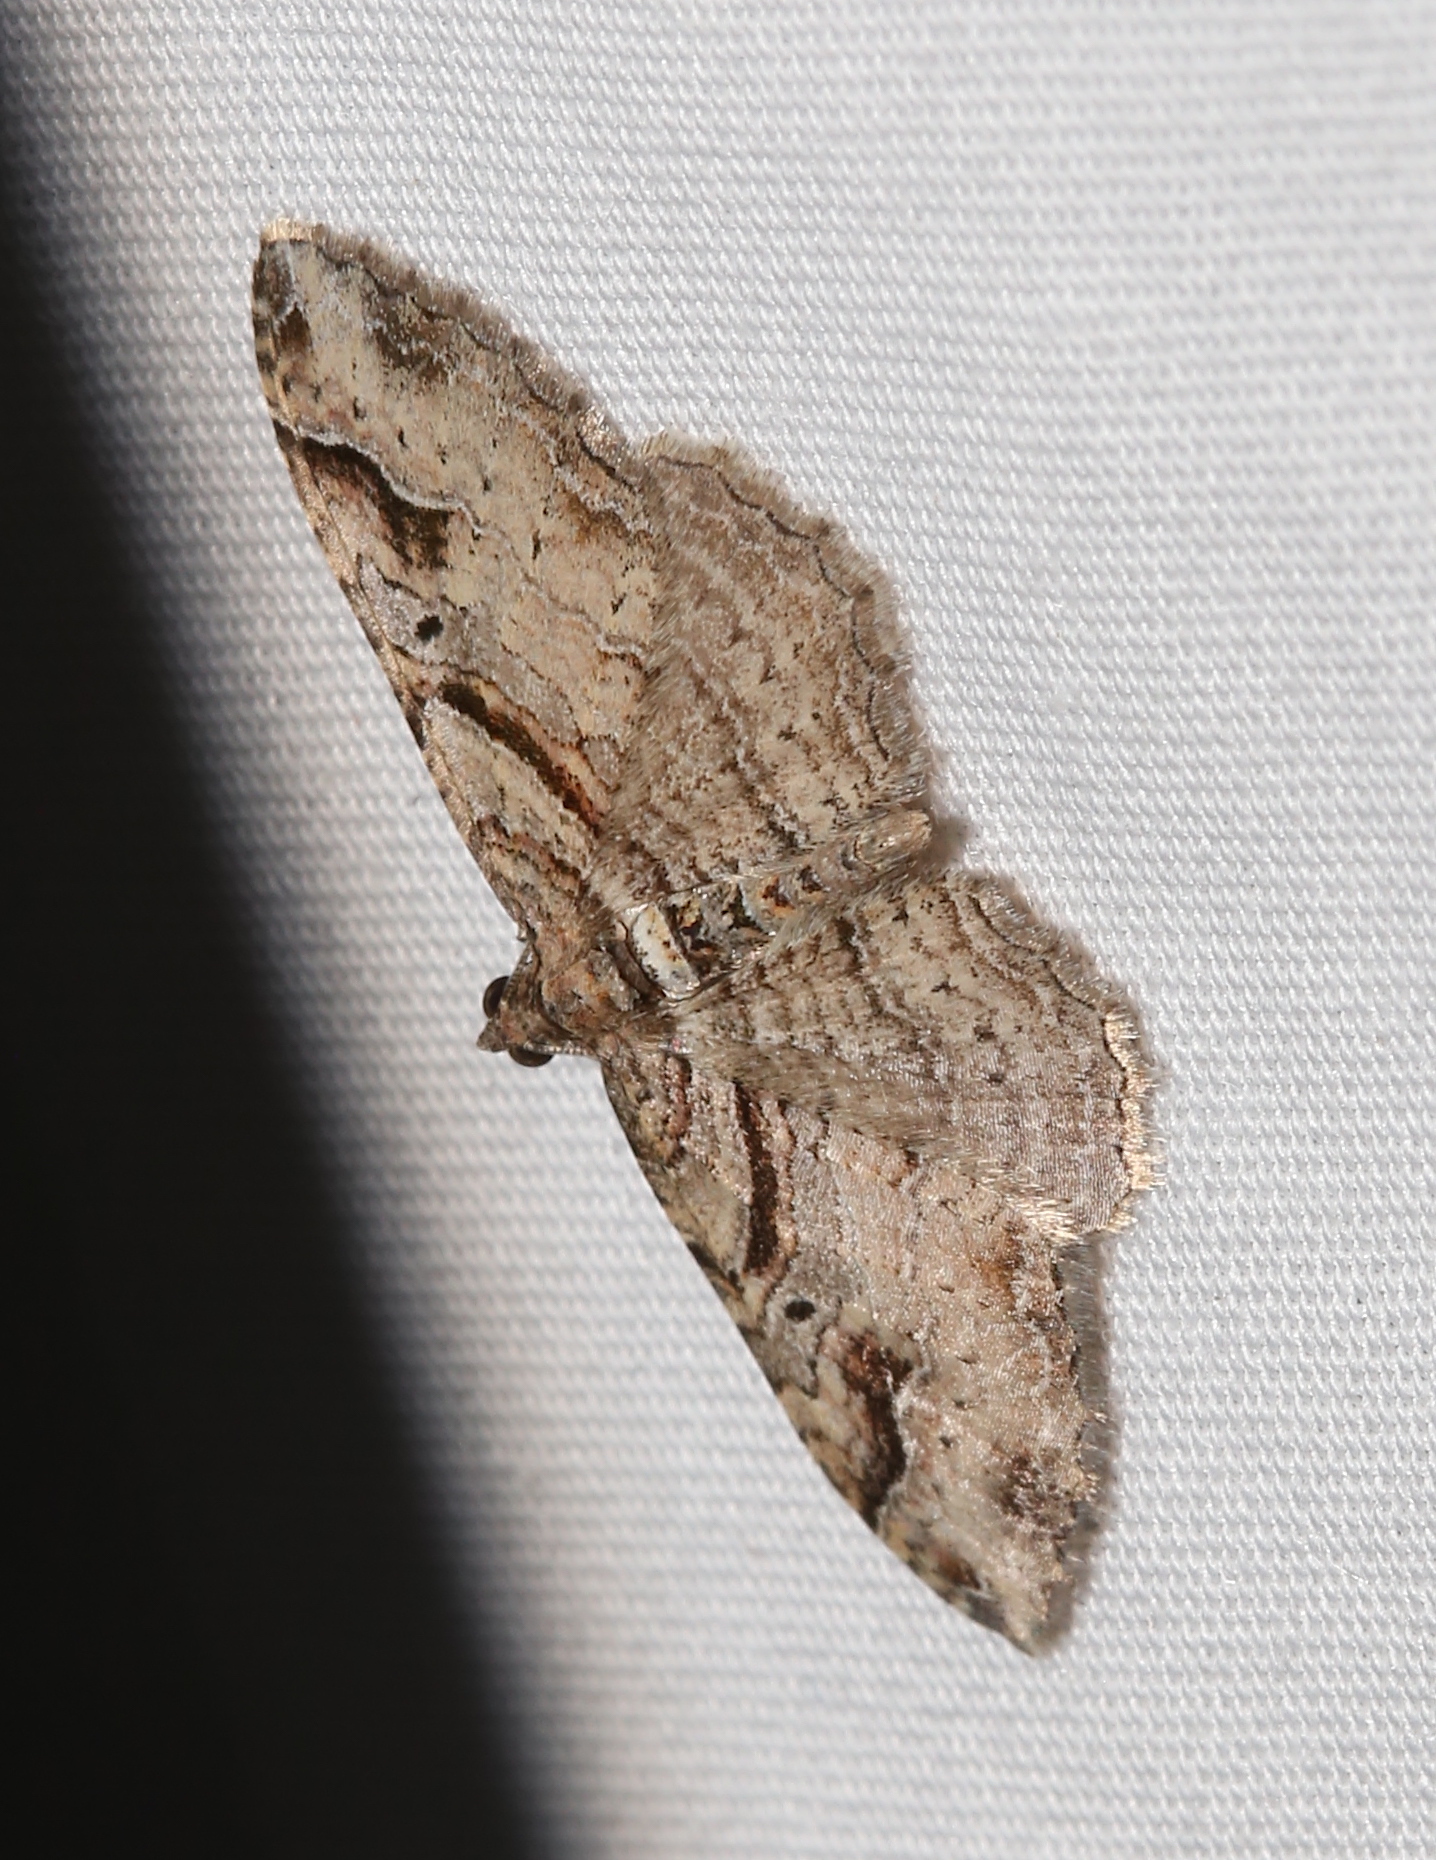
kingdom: Animalia
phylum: Arthropoda
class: Insecta
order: Lepidoptera
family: Geometridae
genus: Costaconvexa
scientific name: Costaconvexa centrostrigaria
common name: Bent-line carpet
